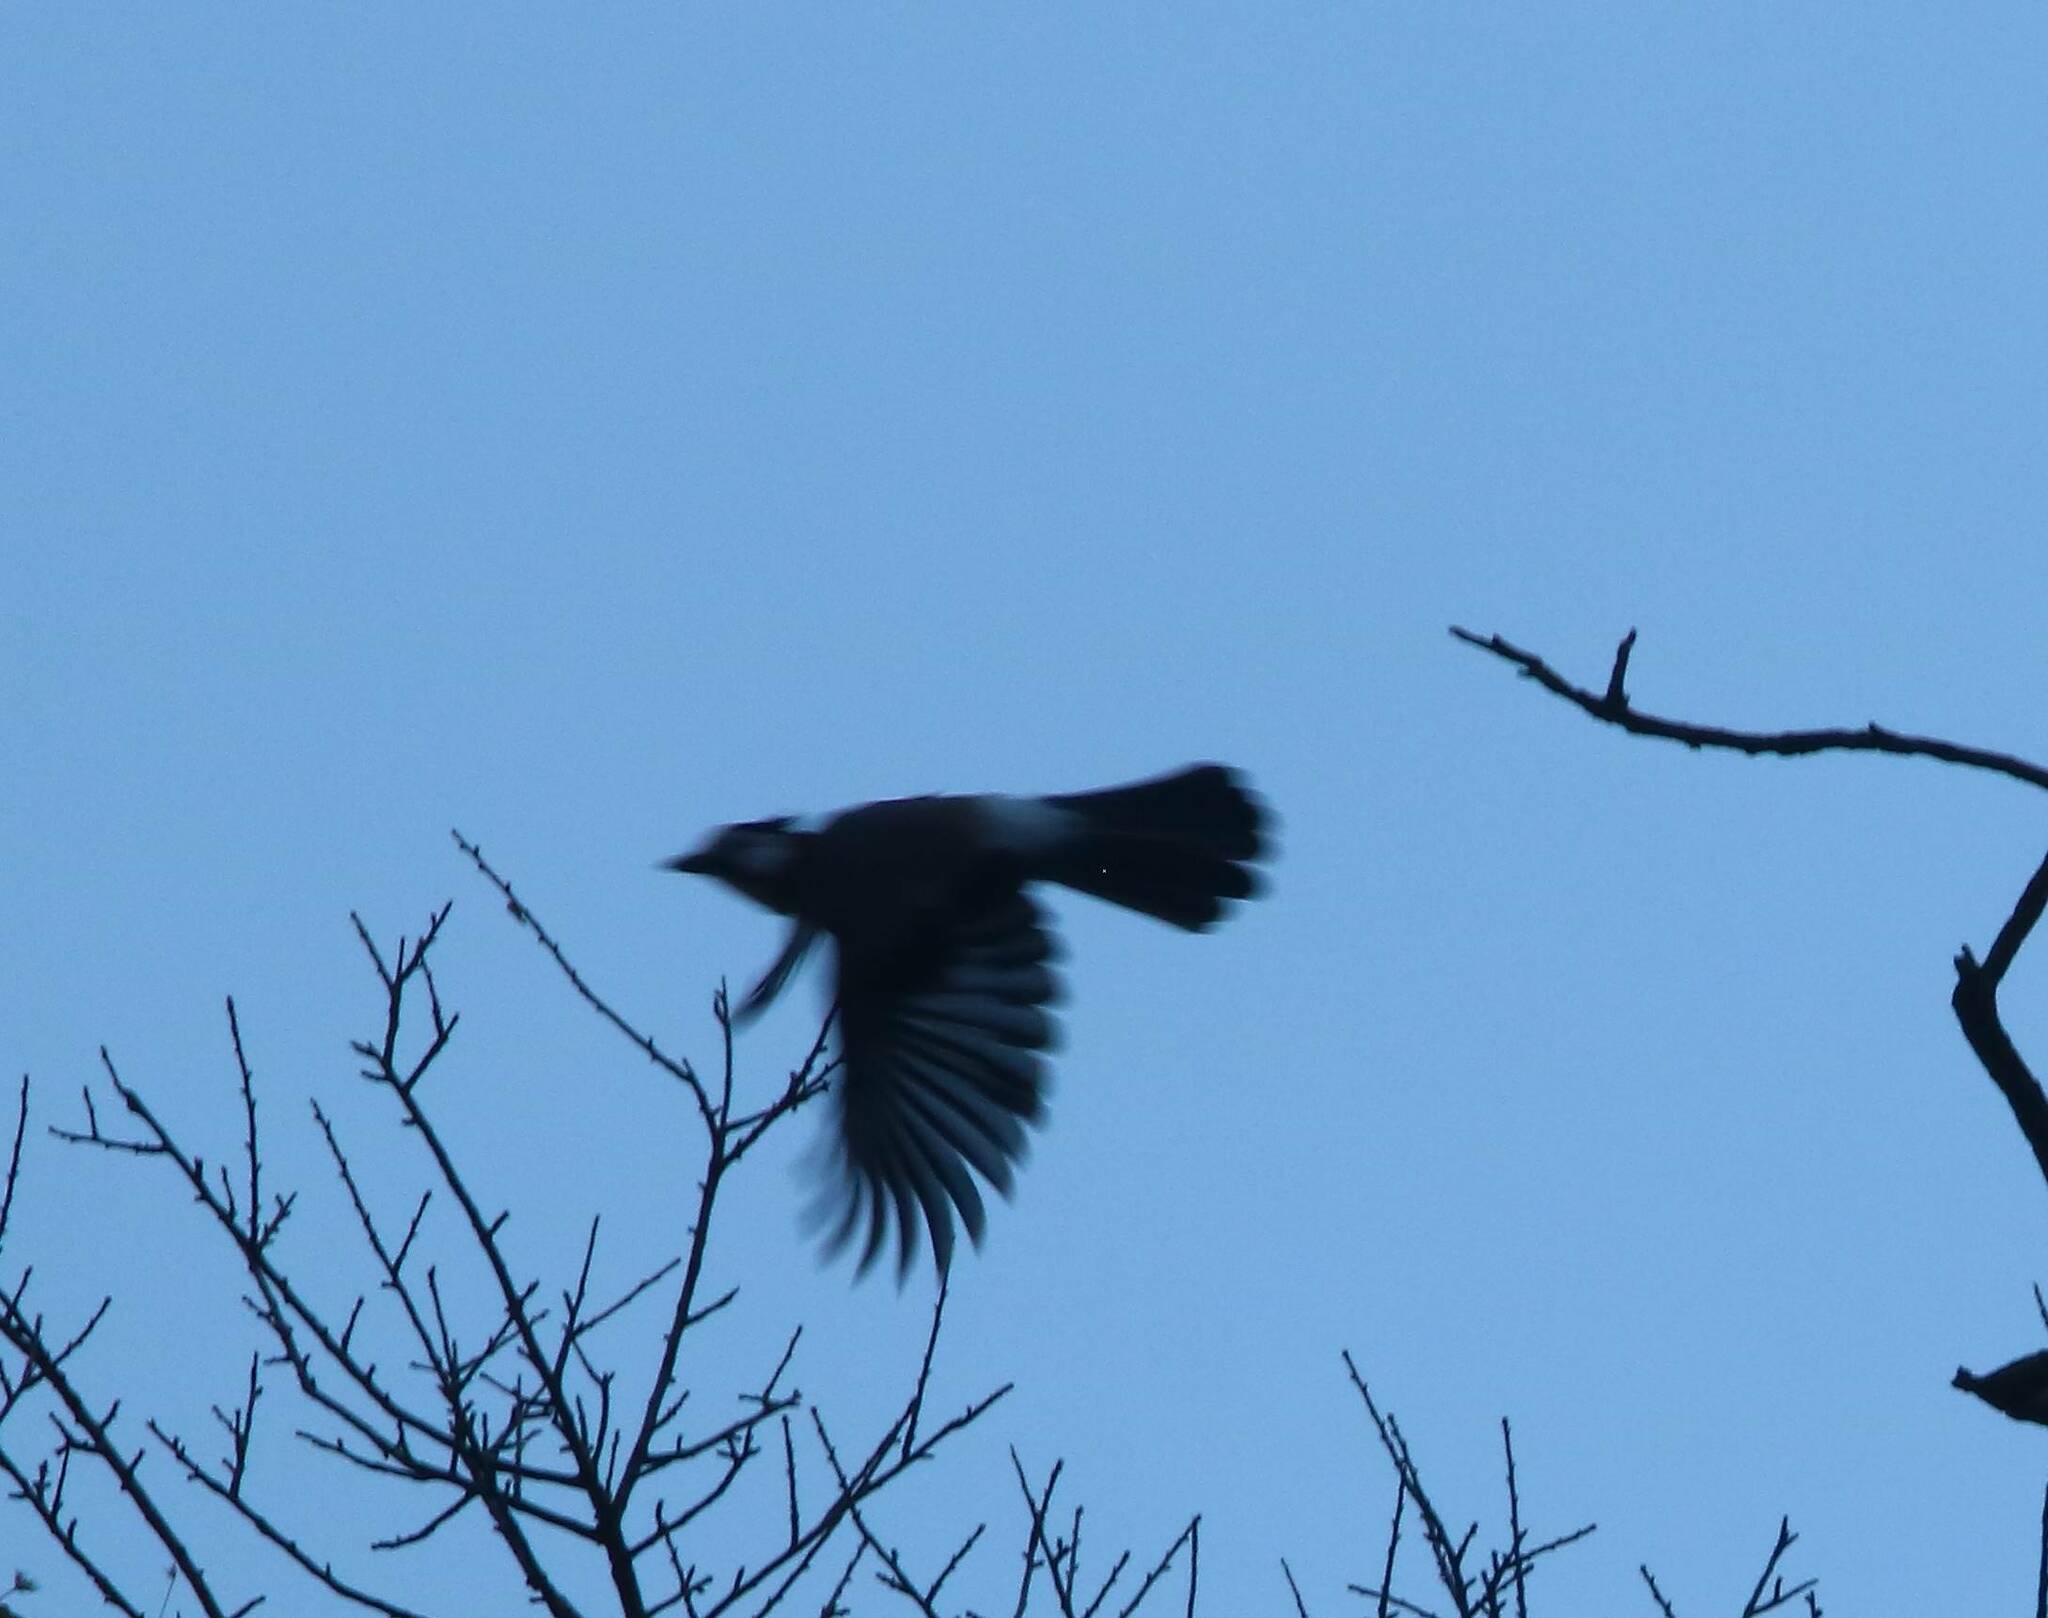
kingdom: Animalia
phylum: Chordata
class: Aves
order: Passeriformes
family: Corvidae
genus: Garrulus
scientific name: Garrulus glandarius
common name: Eurasian jay
